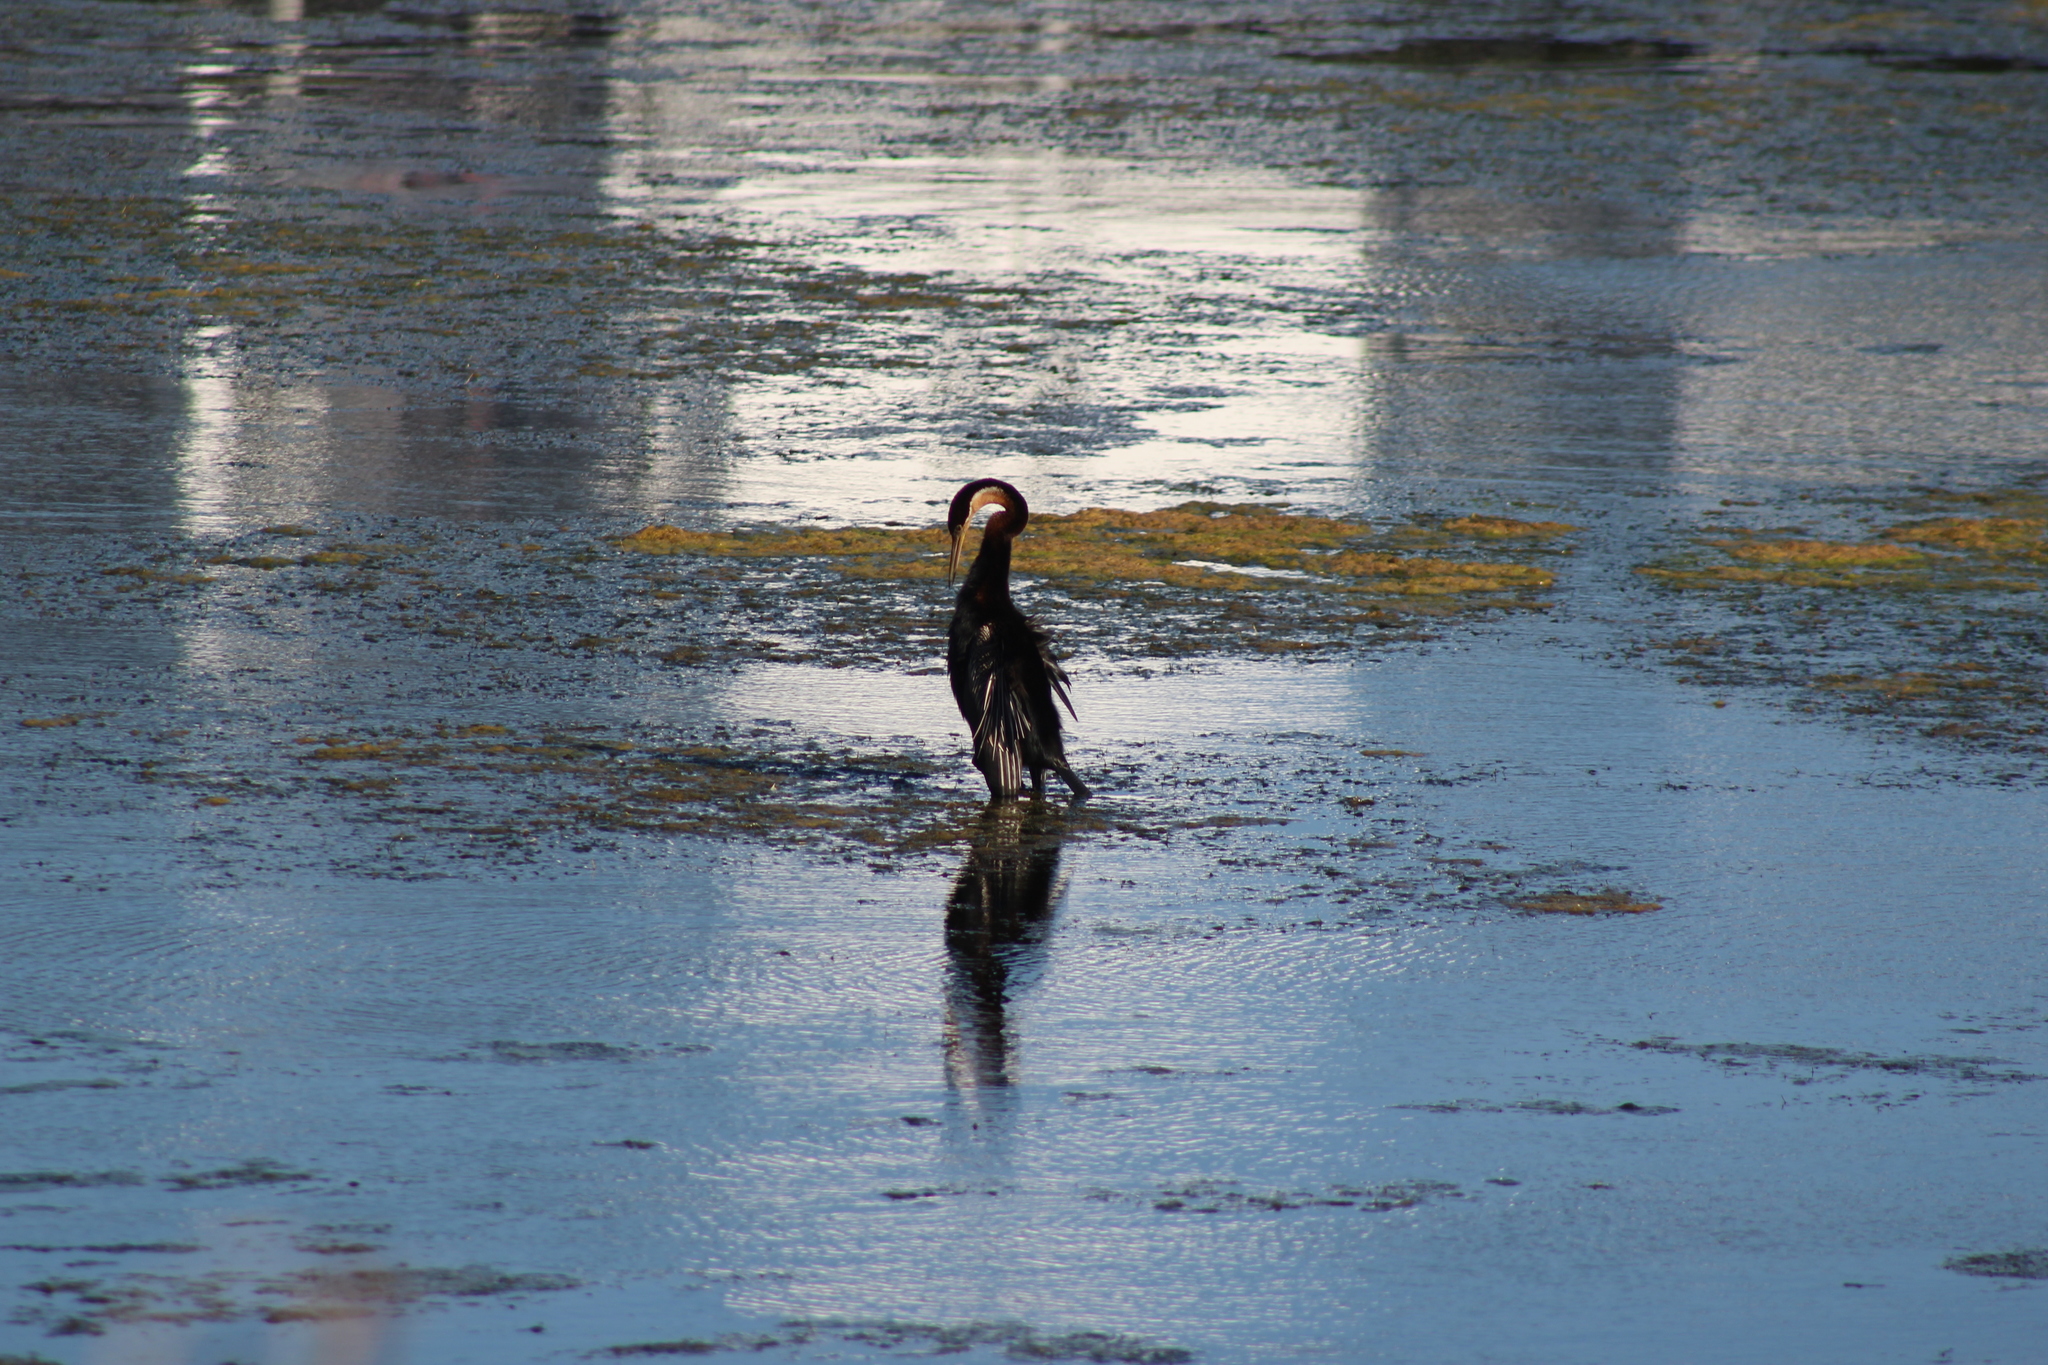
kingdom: Animalia
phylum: Chordata
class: Aves
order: Suliformes
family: Anhingidae
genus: Anhinga
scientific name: Anhinga rufa
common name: African darter
